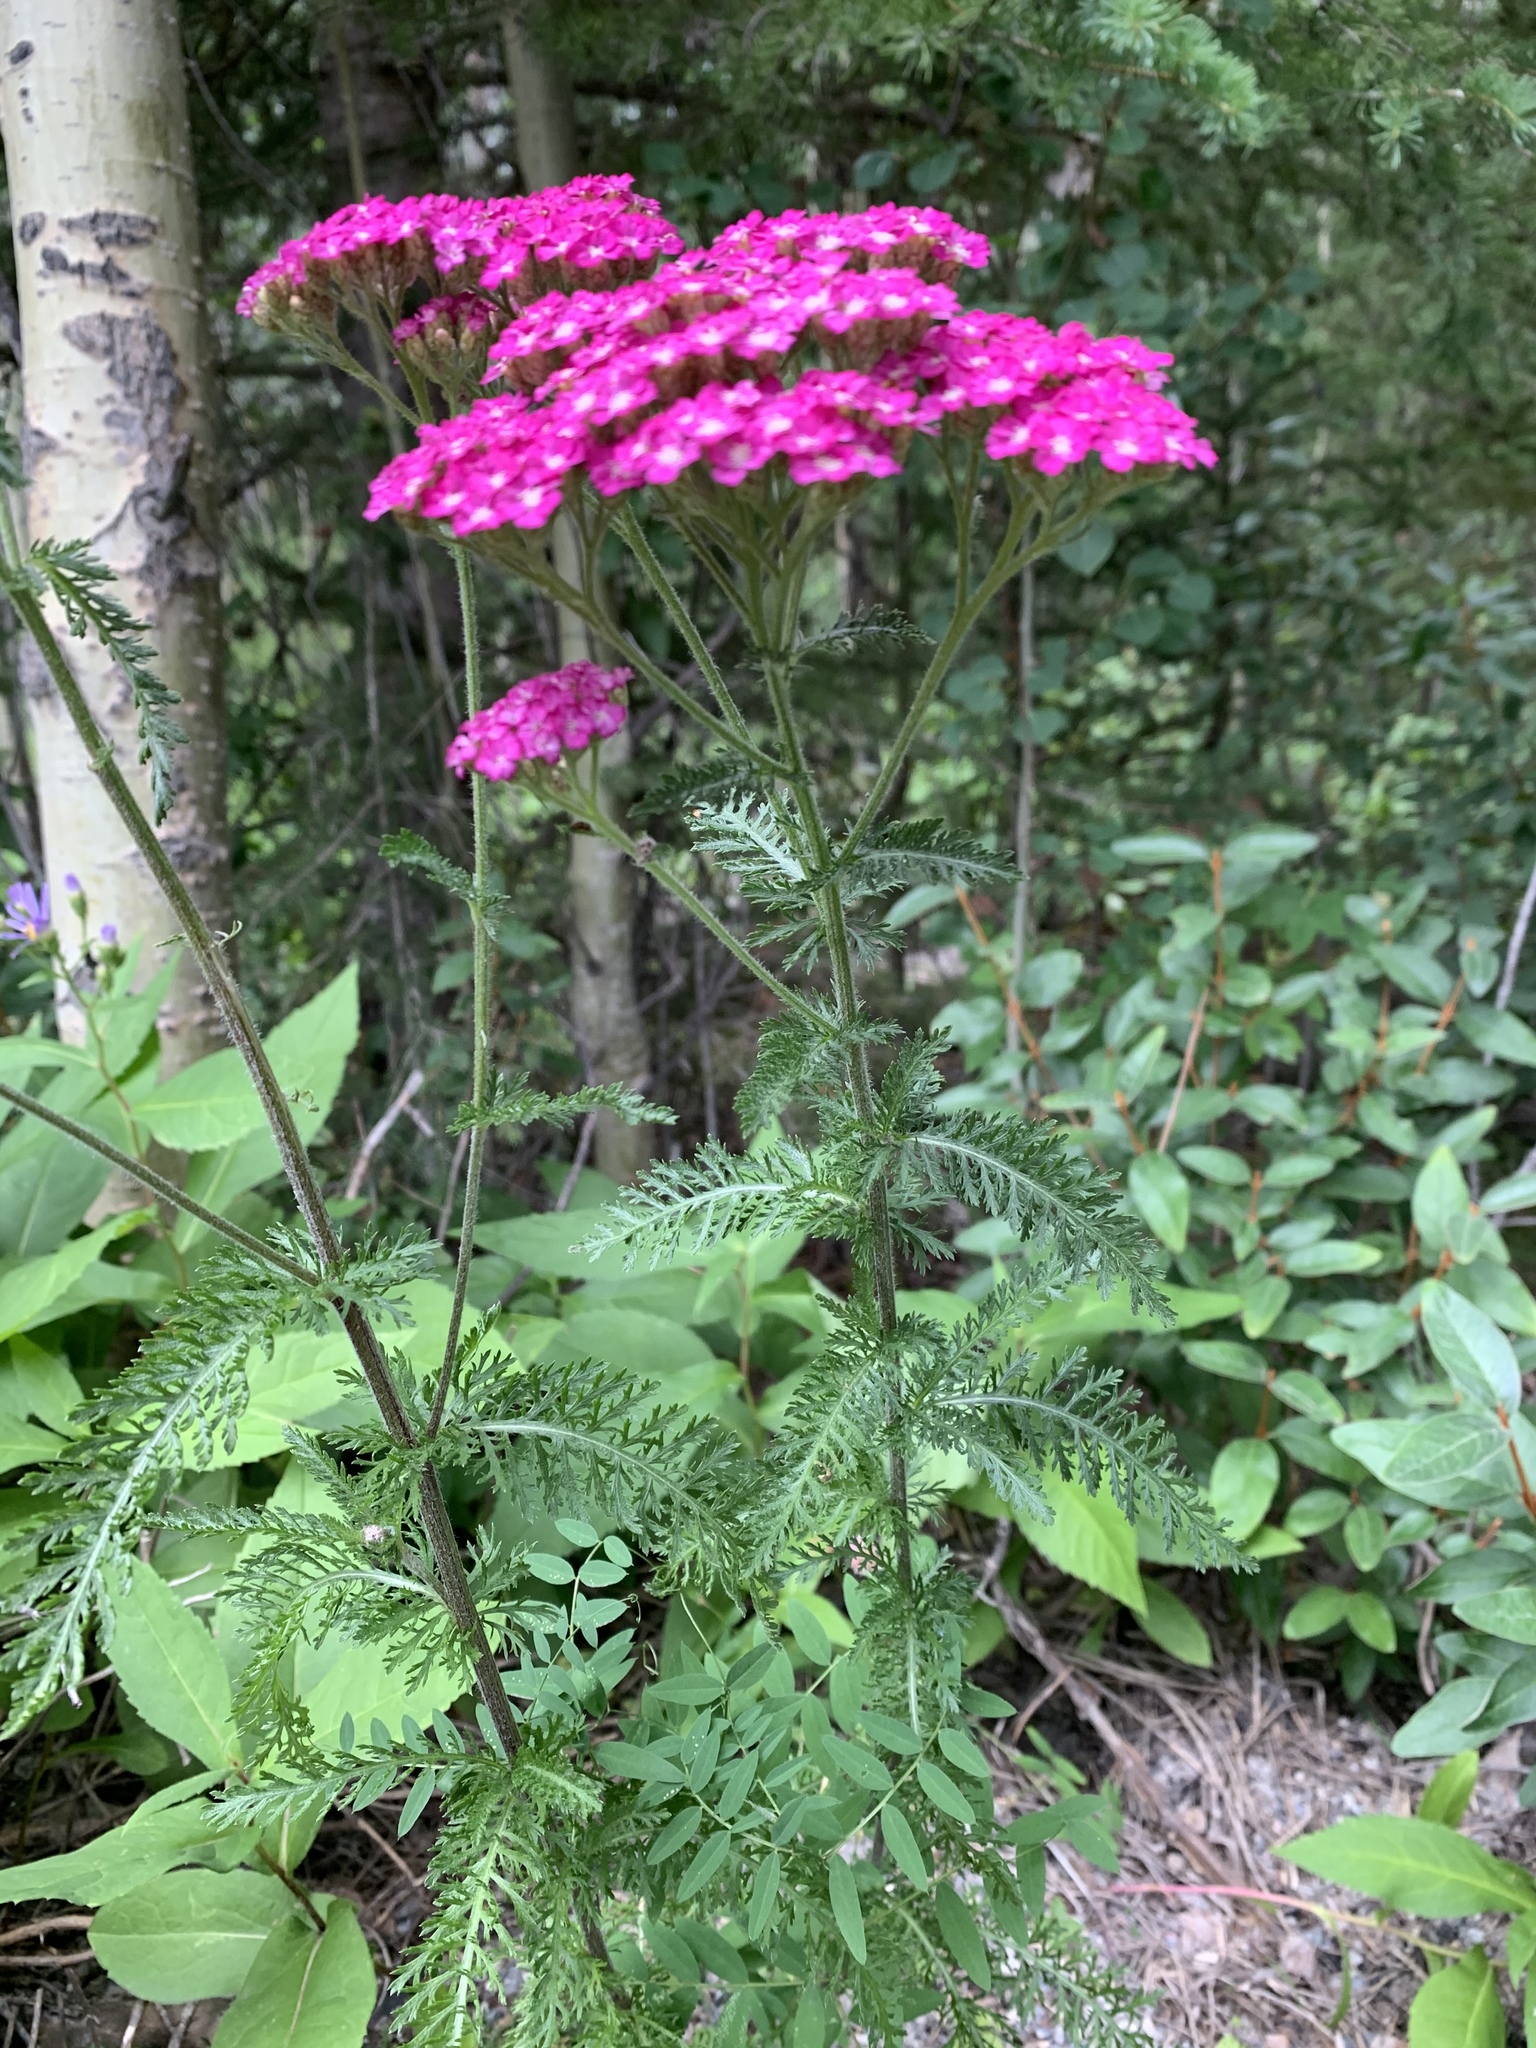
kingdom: Plantae
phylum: Tracheophyta
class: Magnoliopsida
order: Asterales
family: Asteraceae
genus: Achillea
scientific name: Achillea millefolium
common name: Yarrow
